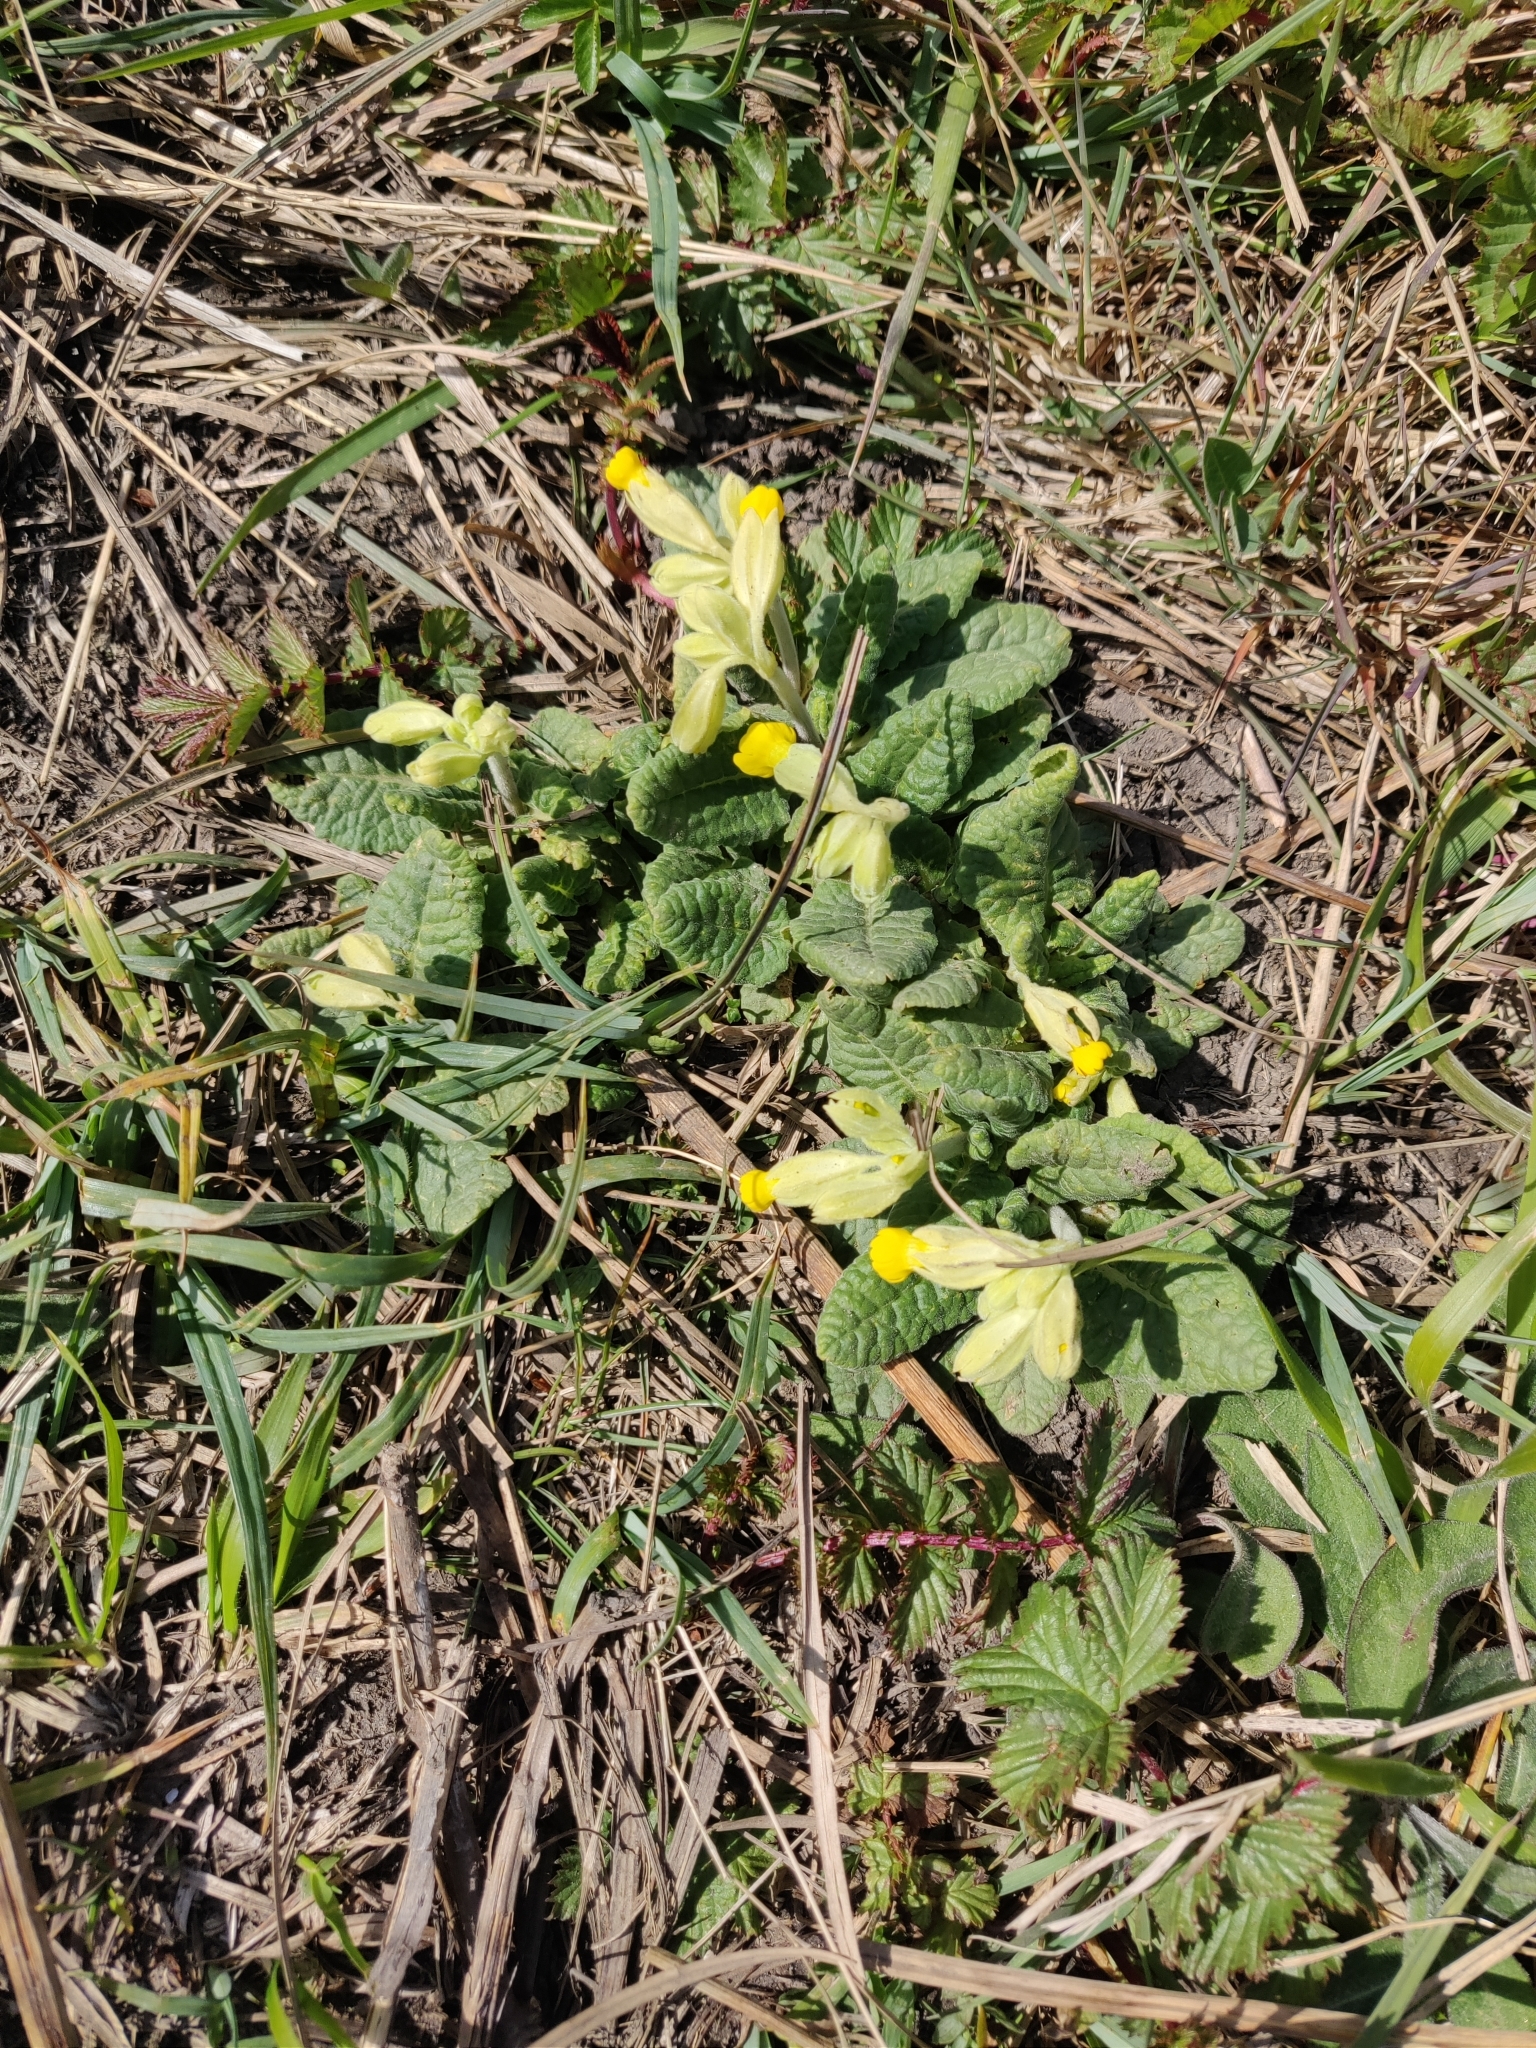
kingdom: Plantae
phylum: Tracheophyta
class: Magnoliopsida
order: Ericales
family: Primulaceae
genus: Primula
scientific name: Primula veris
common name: Cowslip
